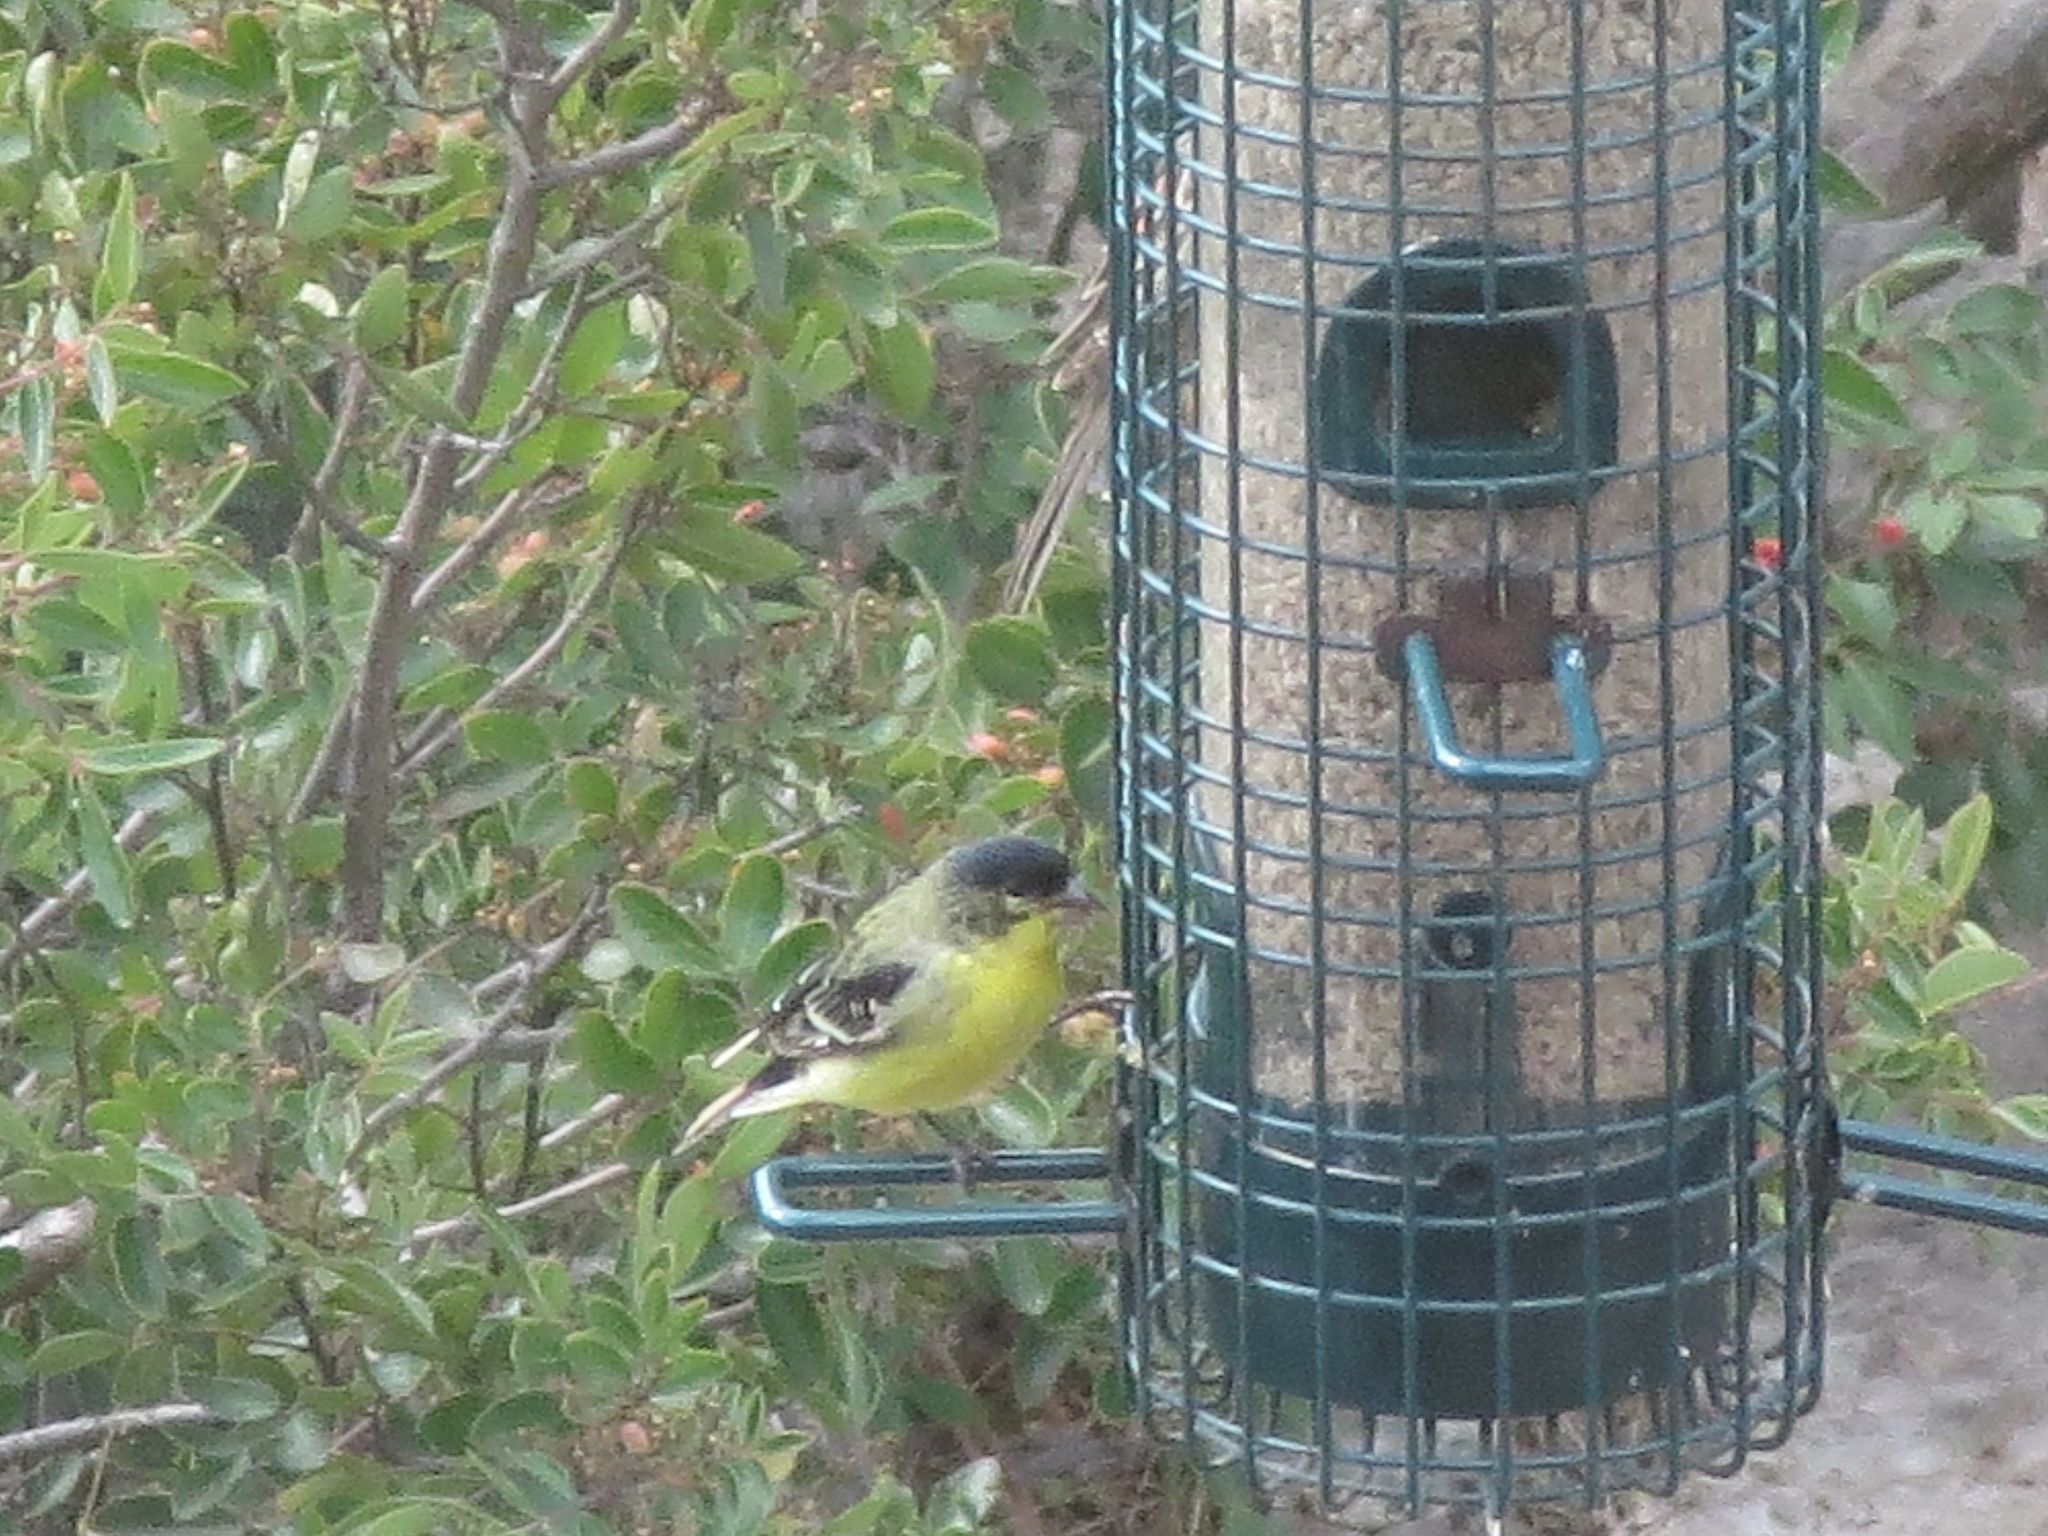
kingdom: Animalia
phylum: Chordata
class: Aves
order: Passeriformes
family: Fringillidae
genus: Spinus
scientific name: Spinus psaltria
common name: Lesser goldfinch
